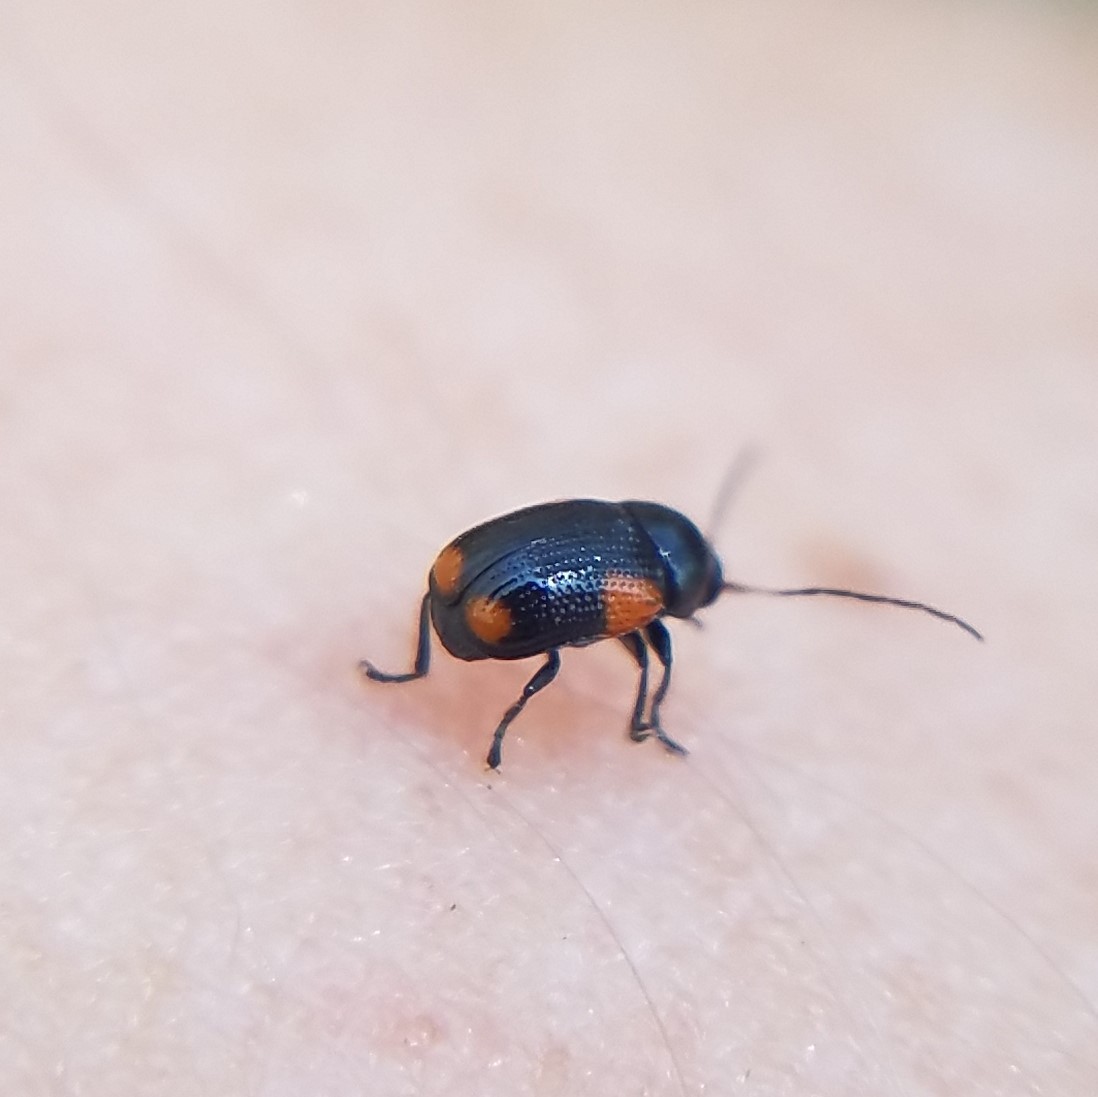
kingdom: Animalia
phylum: Arthropoda
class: Insecta
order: Coleoptera
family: Chrysomelidae
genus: Cryptocephalus
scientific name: Cryptocephalus quadruplex
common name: Black and red sumac leaf beetle
